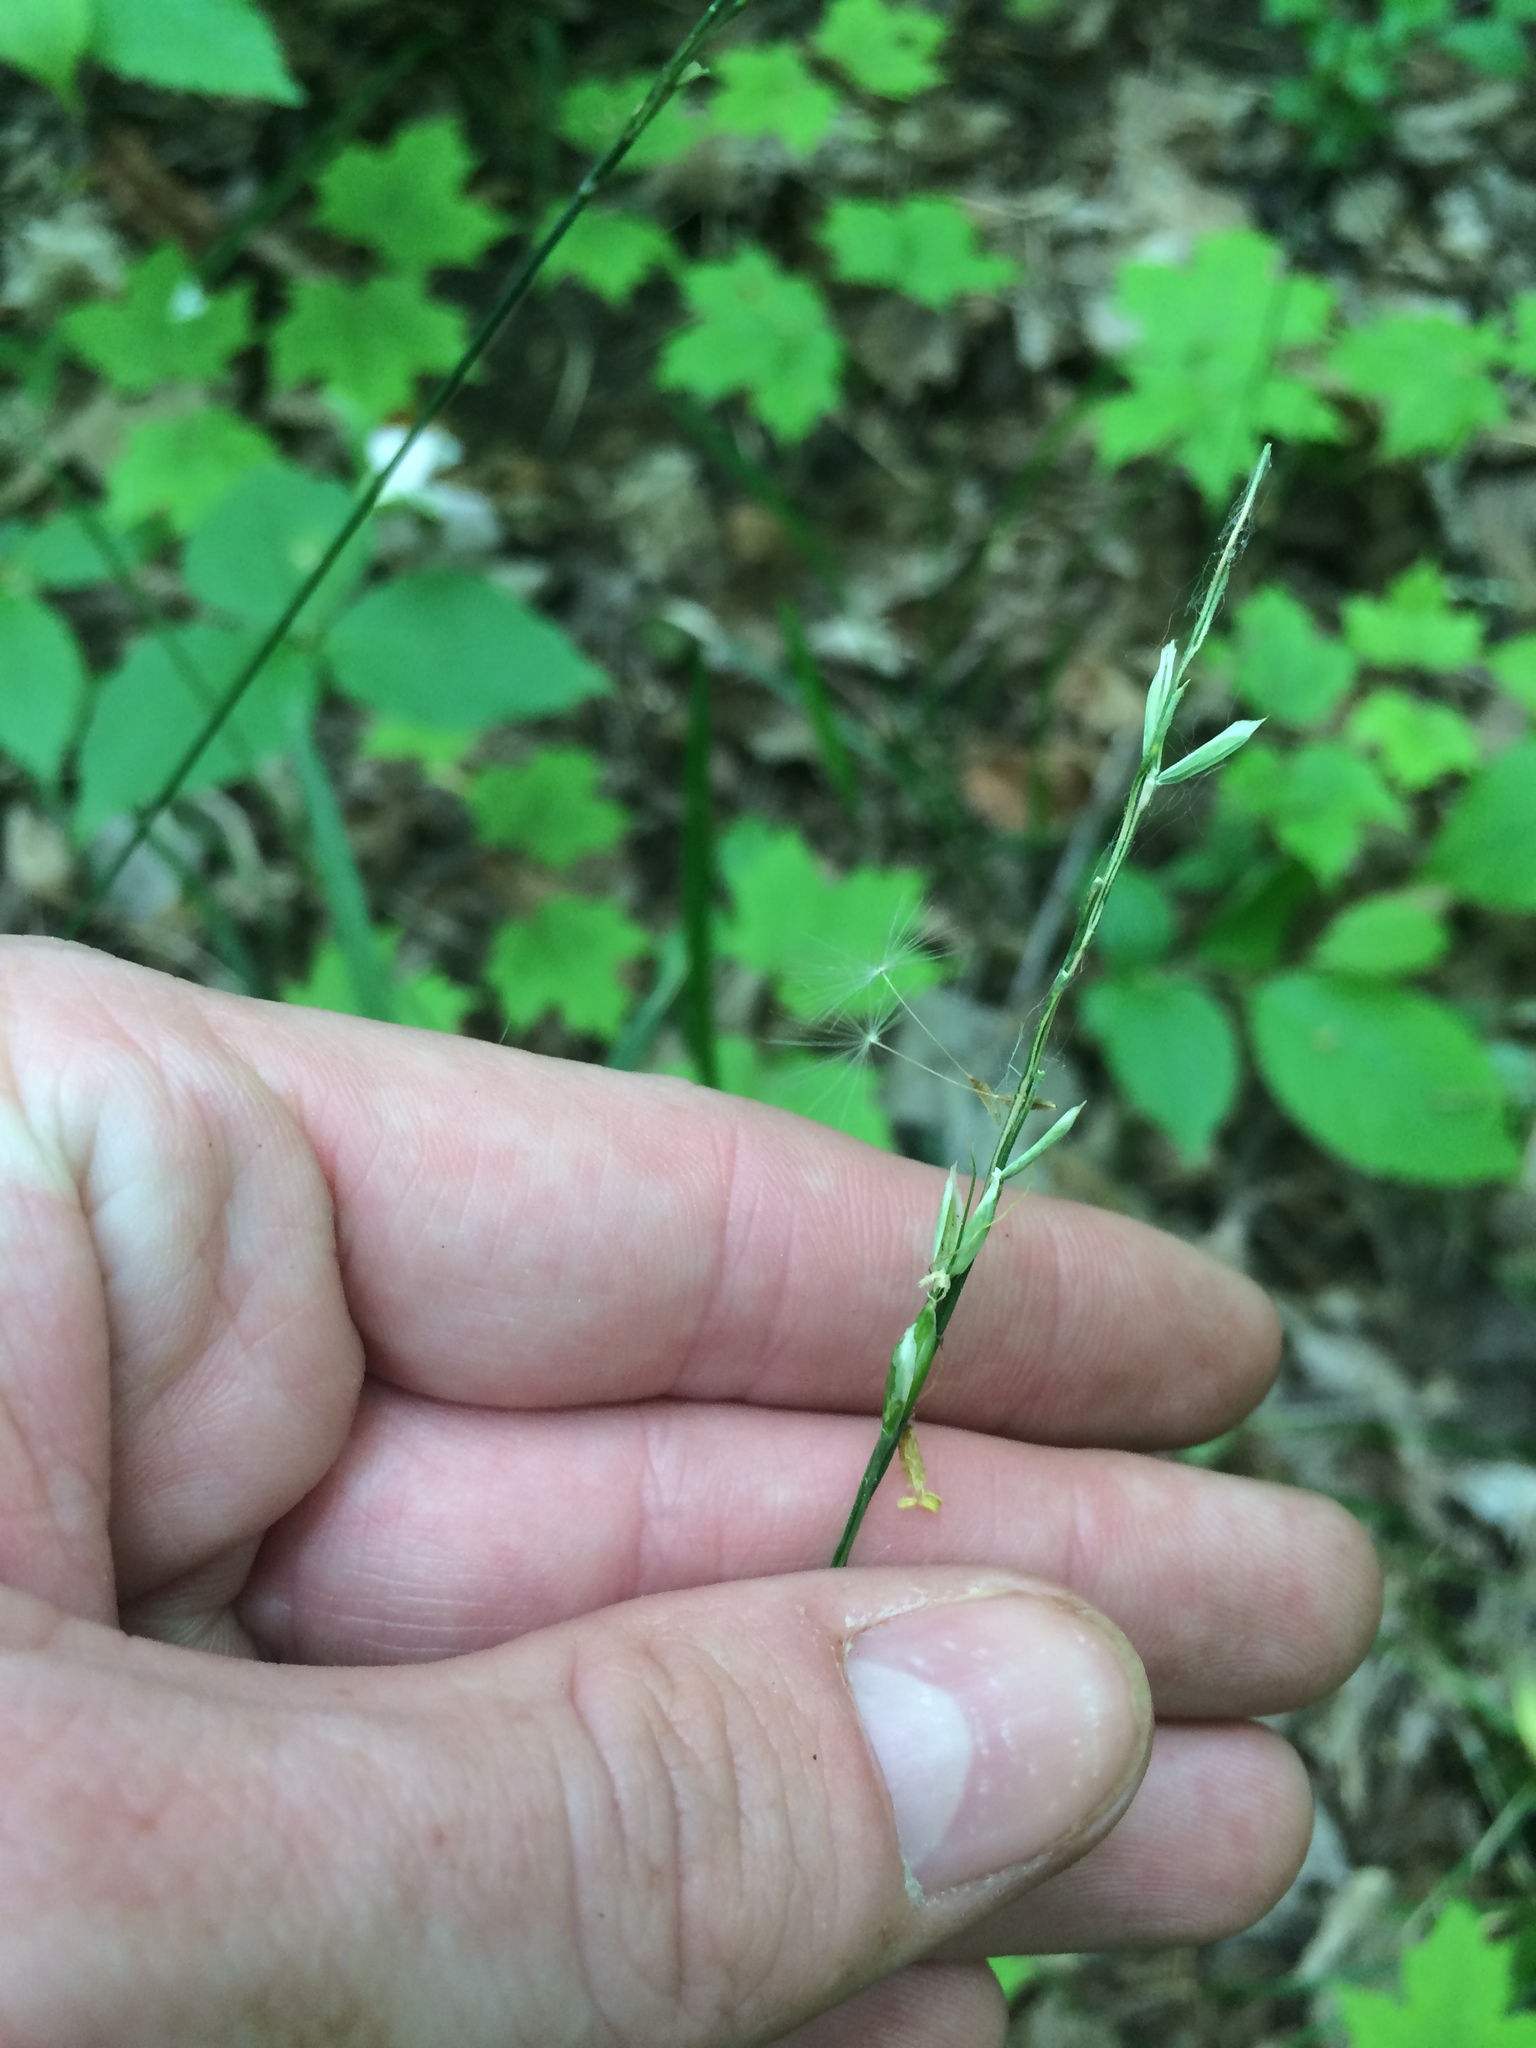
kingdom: Plantae
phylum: Tracheophyta
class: Liliopsida
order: Poales
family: Poaceae
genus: Oryzopsis
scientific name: Oryzopsis asperifolia
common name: Rough-leaved mountain rice
